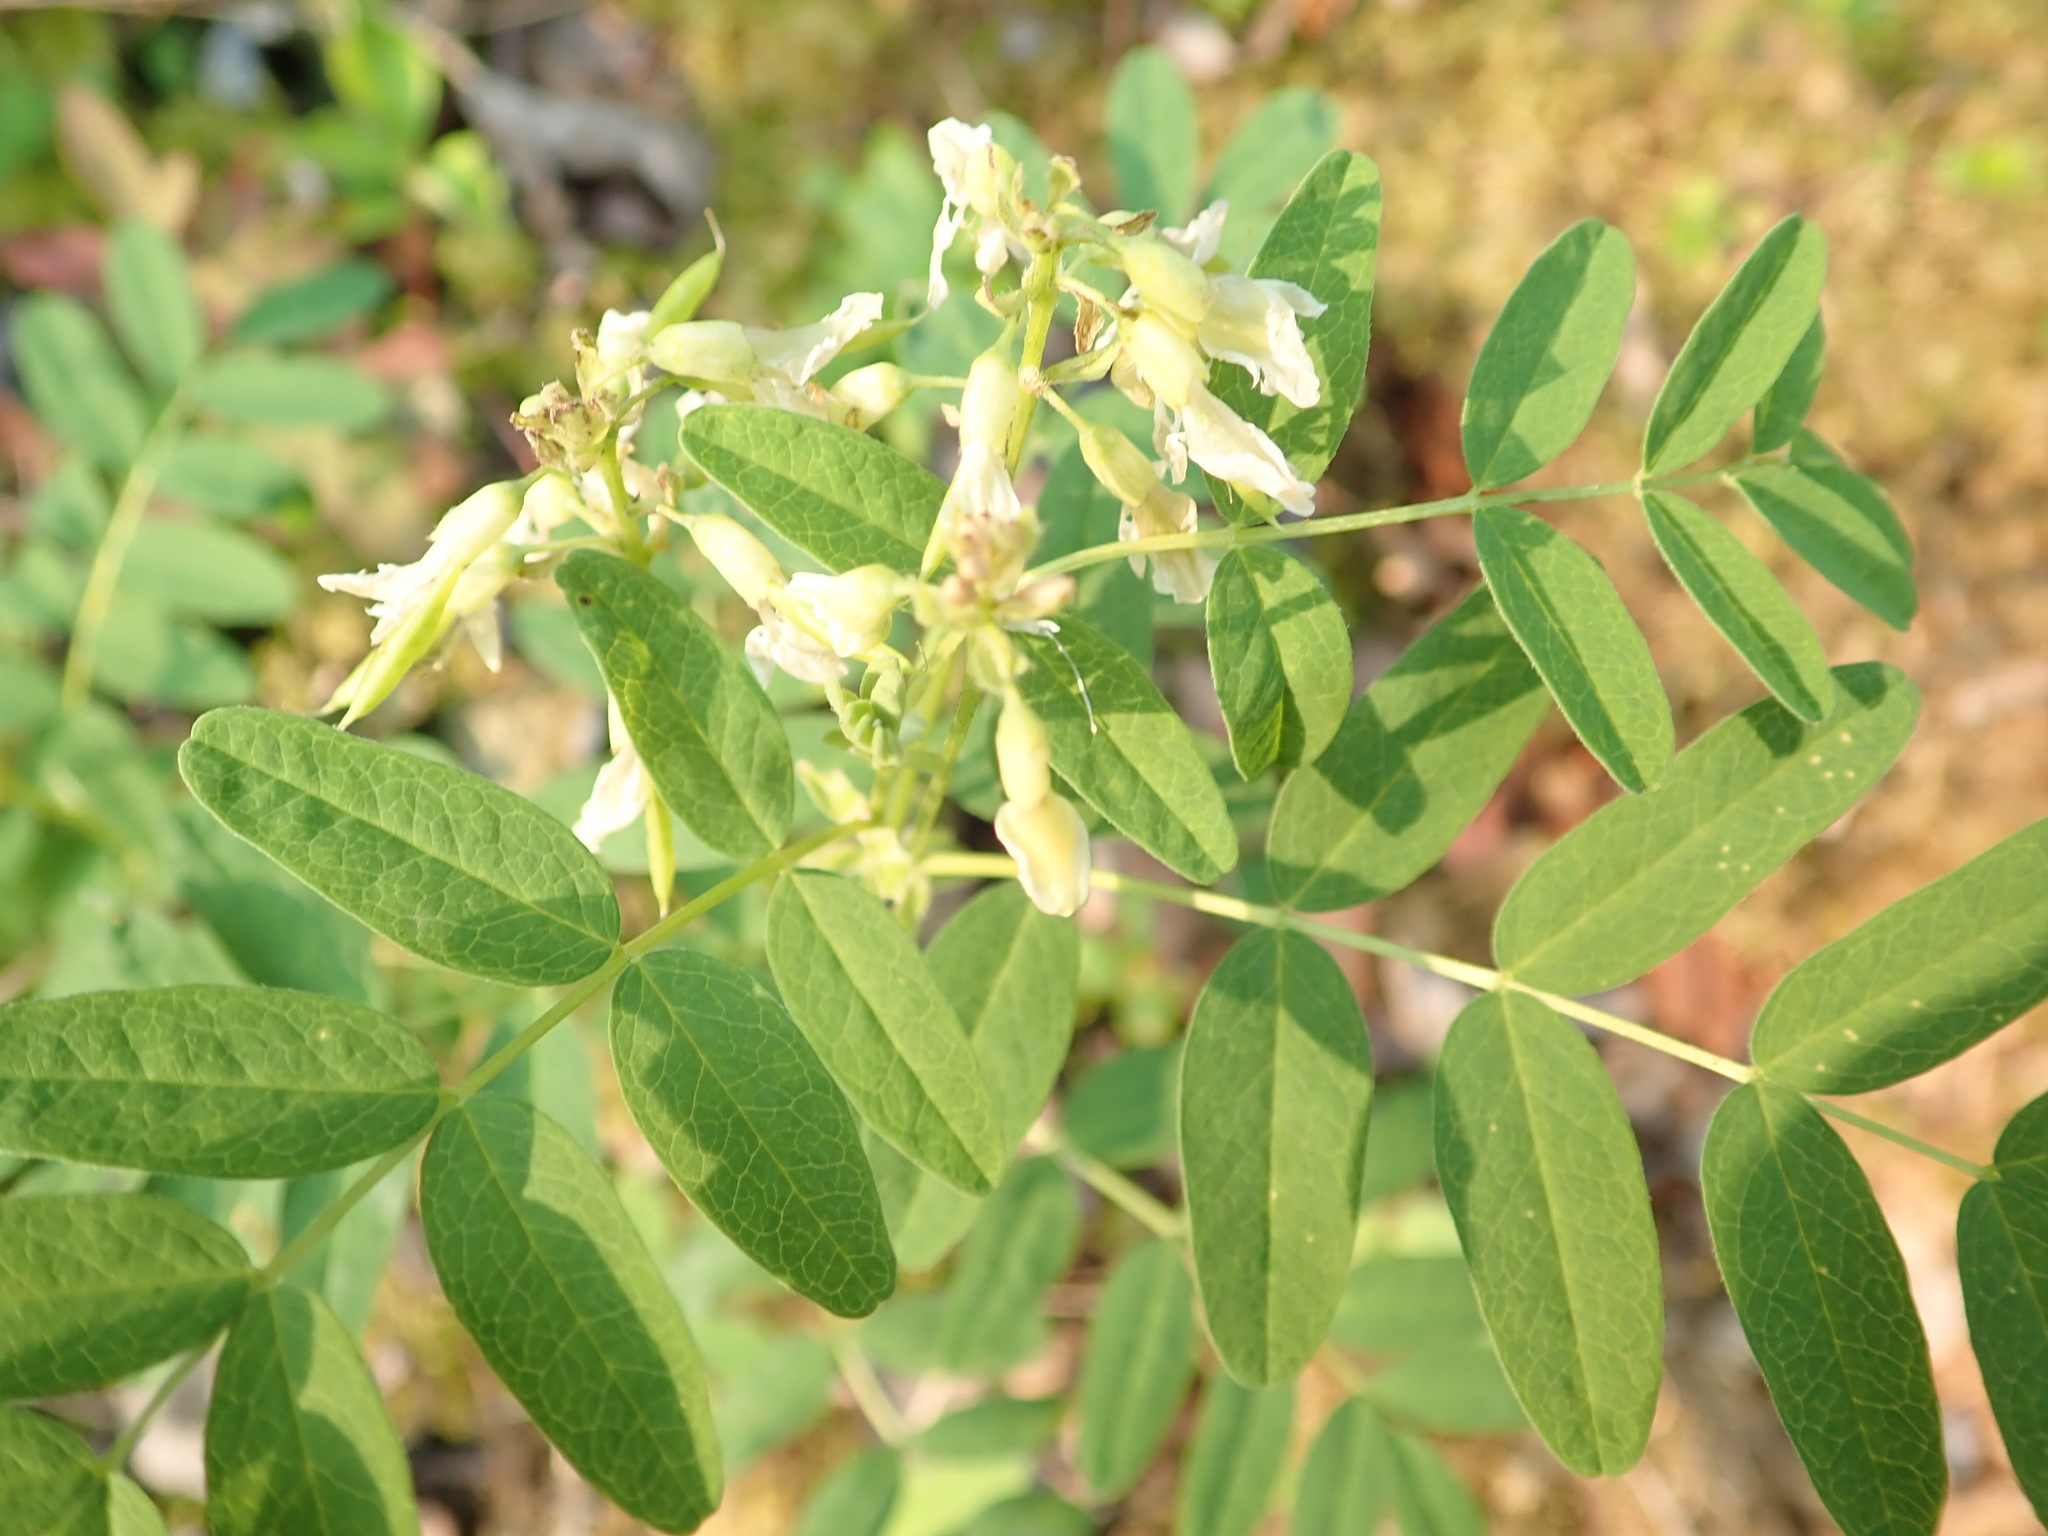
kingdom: Plantae
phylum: Tracheophyta
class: Magnoliopsida
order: Fabales
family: Fabaceae
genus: Astragalus
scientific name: Astragalus americanus
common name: American milk-vetch
